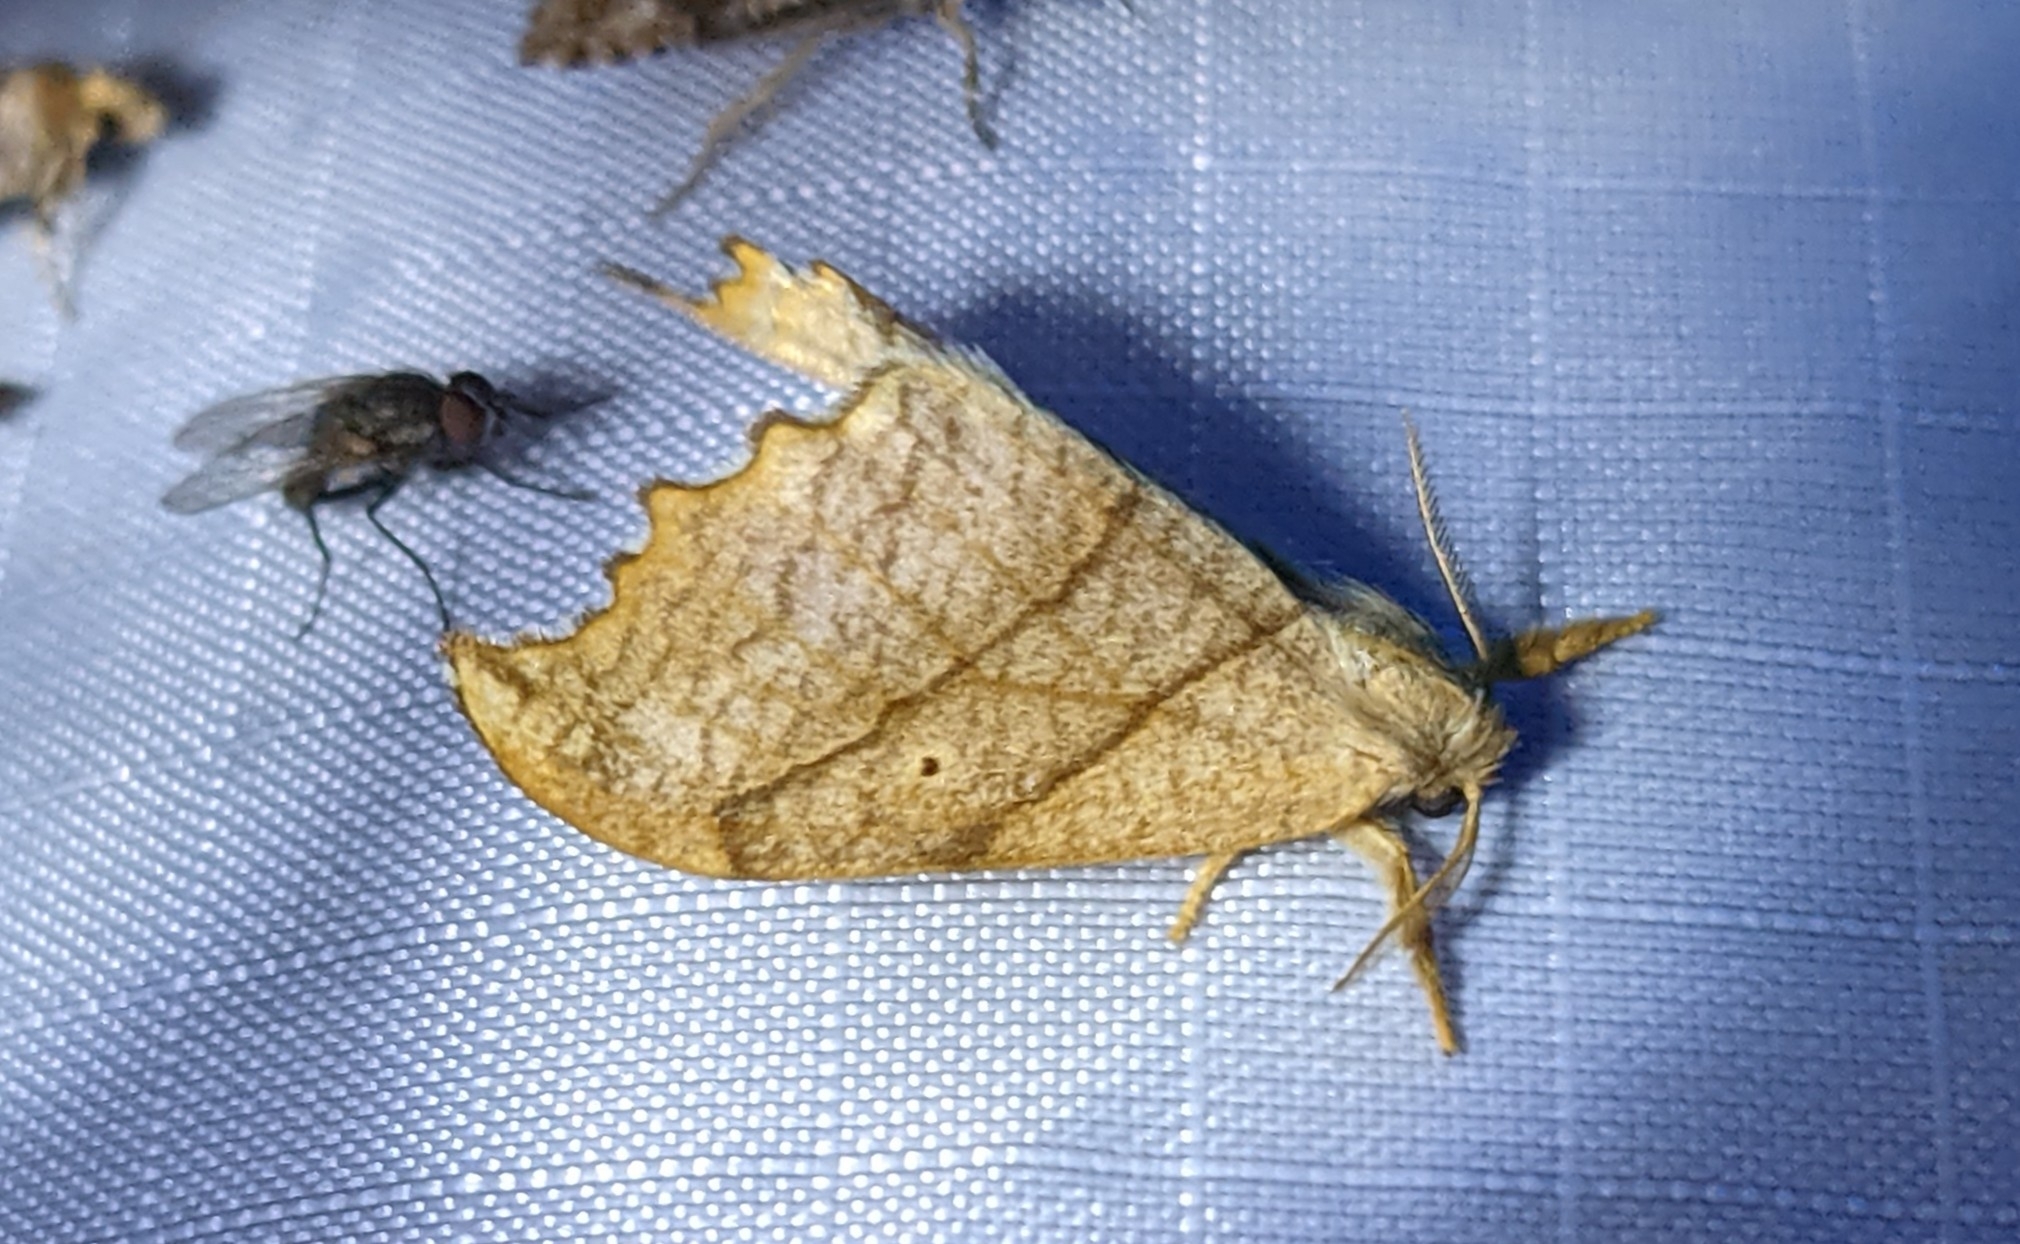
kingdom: Animalia
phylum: Arthropoda
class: Insecta
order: Lepidoptera
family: Drepanidae
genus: Falcaria
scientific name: Falcaria bilineata
